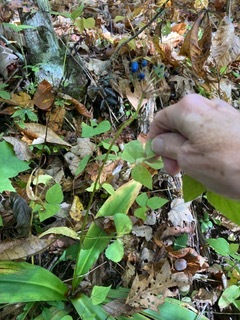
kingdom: Plantae
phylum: Tracheophyta
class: Liliopsida
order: Liliales
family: Liliaceae
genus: Clintonia
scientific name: Clintonia umbellulata
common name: Speckle wood-lily
